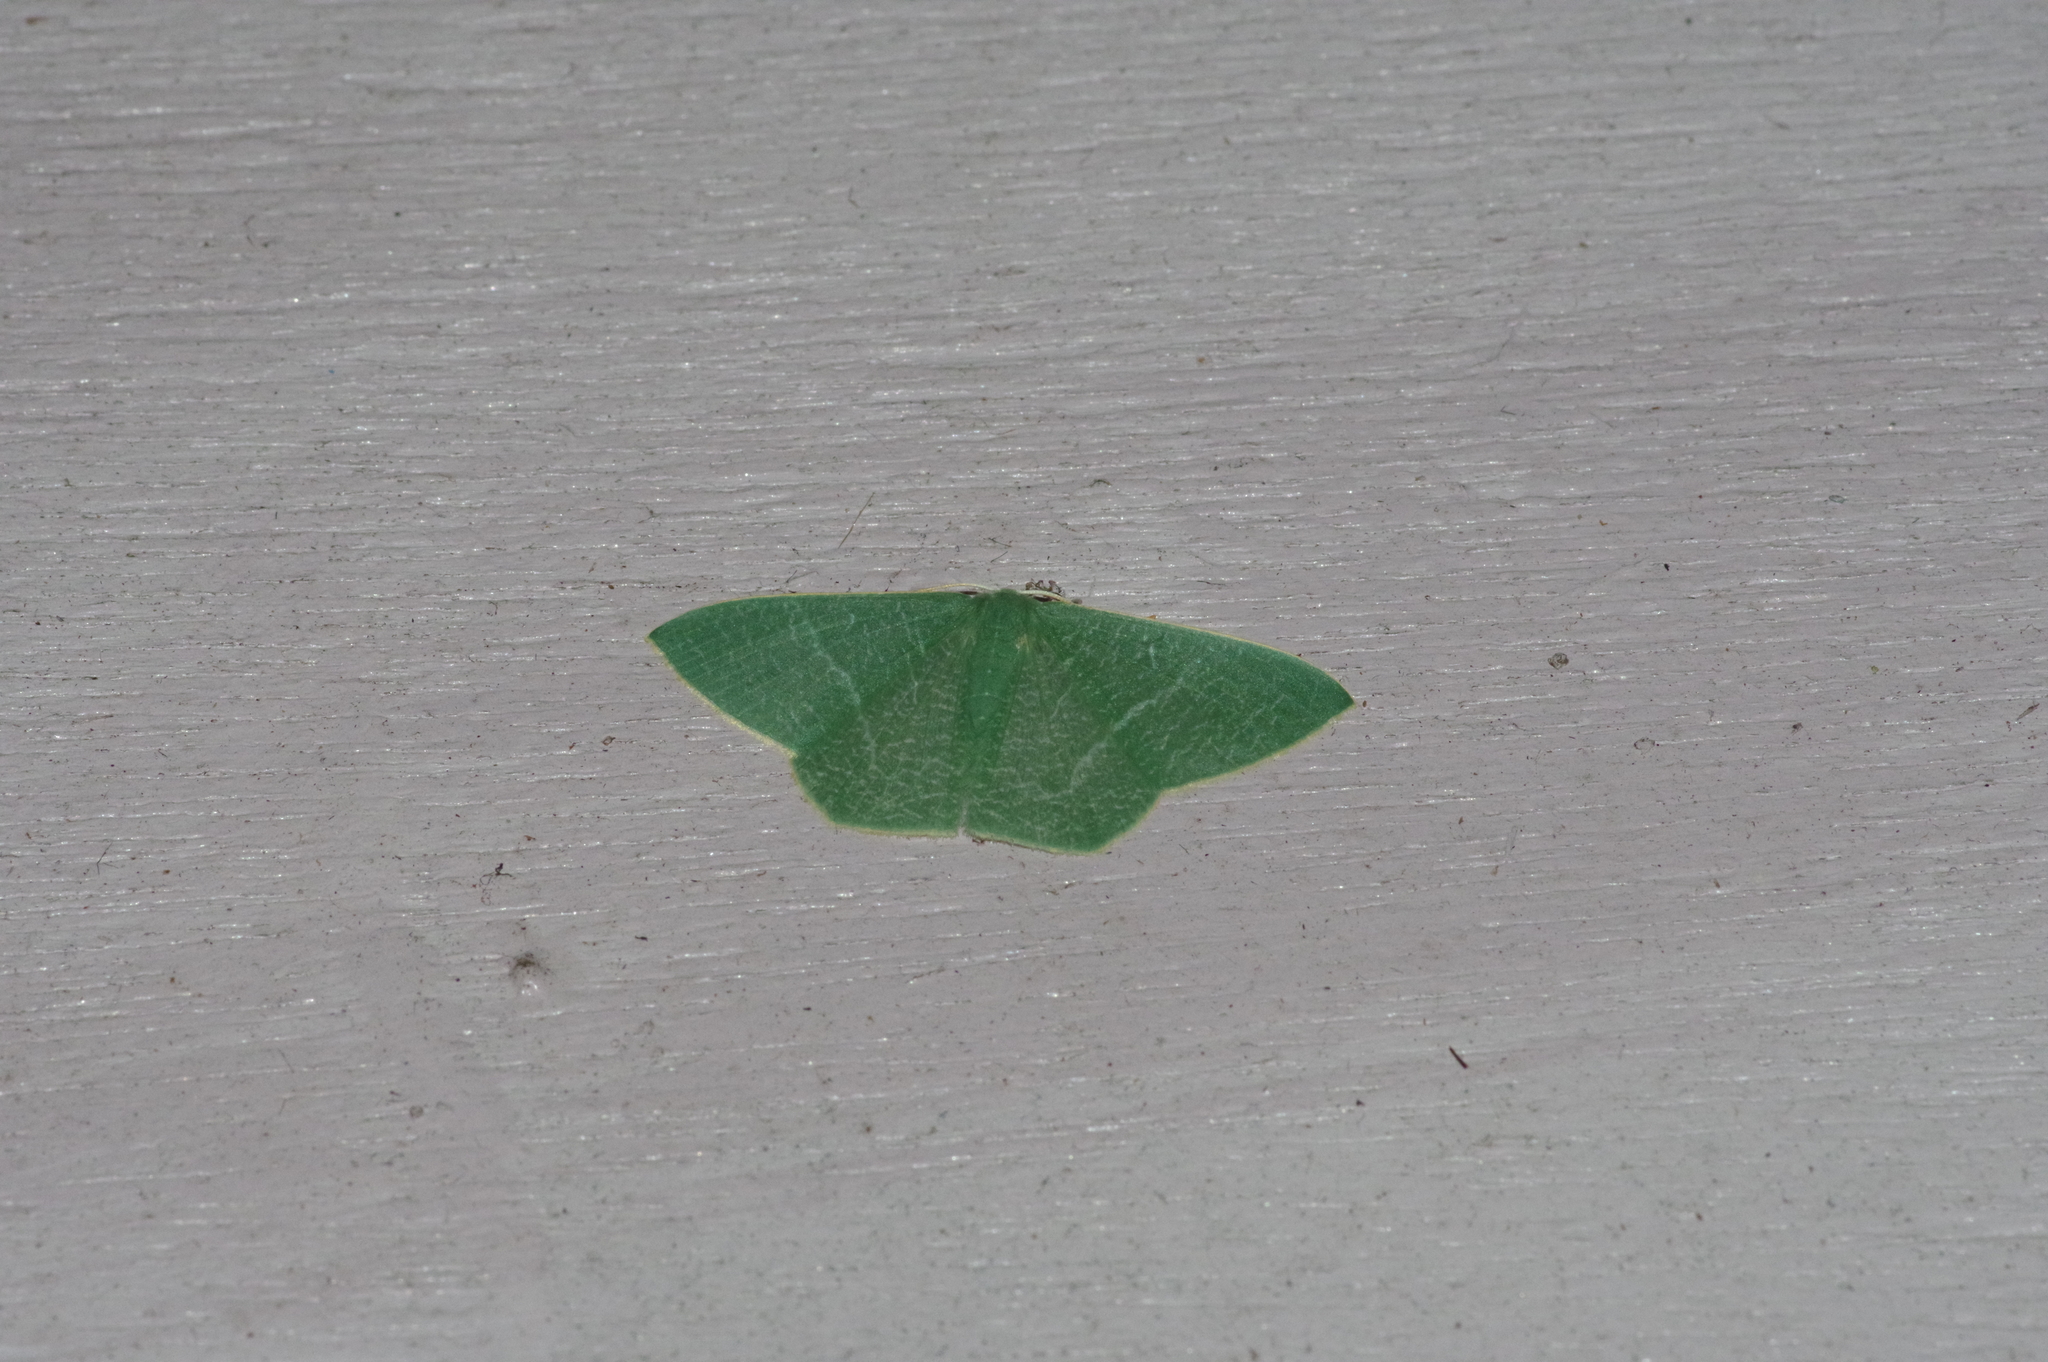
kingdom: Animalia
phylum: Arthropoda
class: Insecta
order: Lepidoptera
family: Geometridae
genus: Thalassodes
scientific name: Thalassodes immissaria
